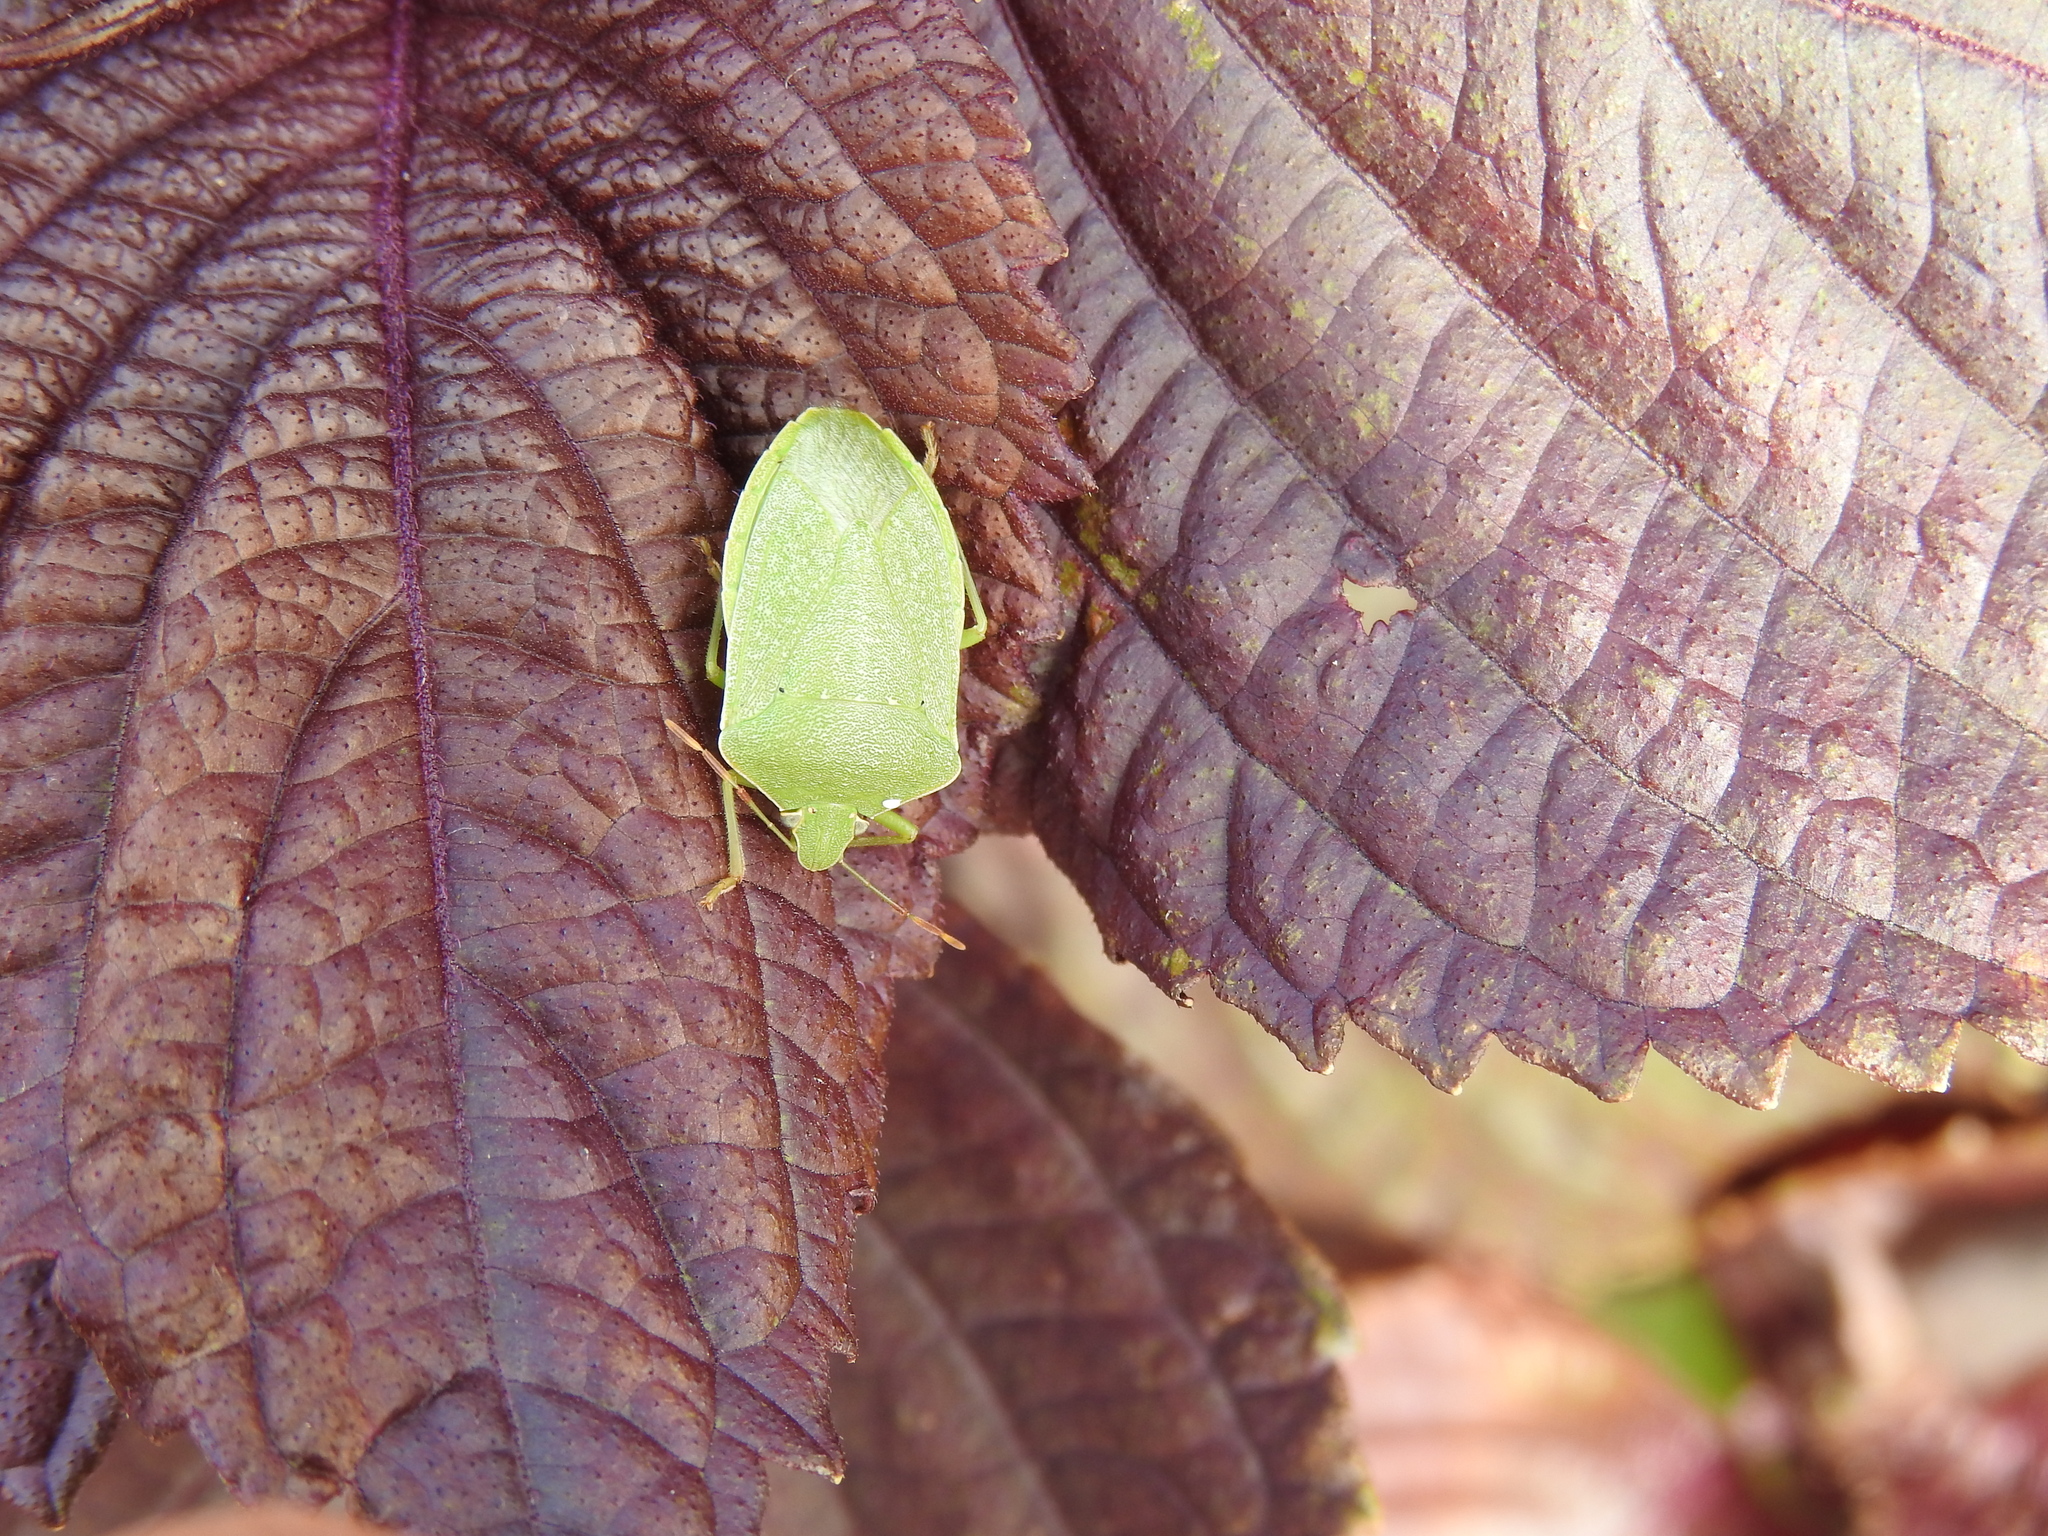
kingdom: Animalia
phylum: Arthropoda
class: Insecta
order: Hemiptera
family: Pentatomidae
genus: Nezara
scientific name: Nezara viridula
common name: Southern green stink bug
